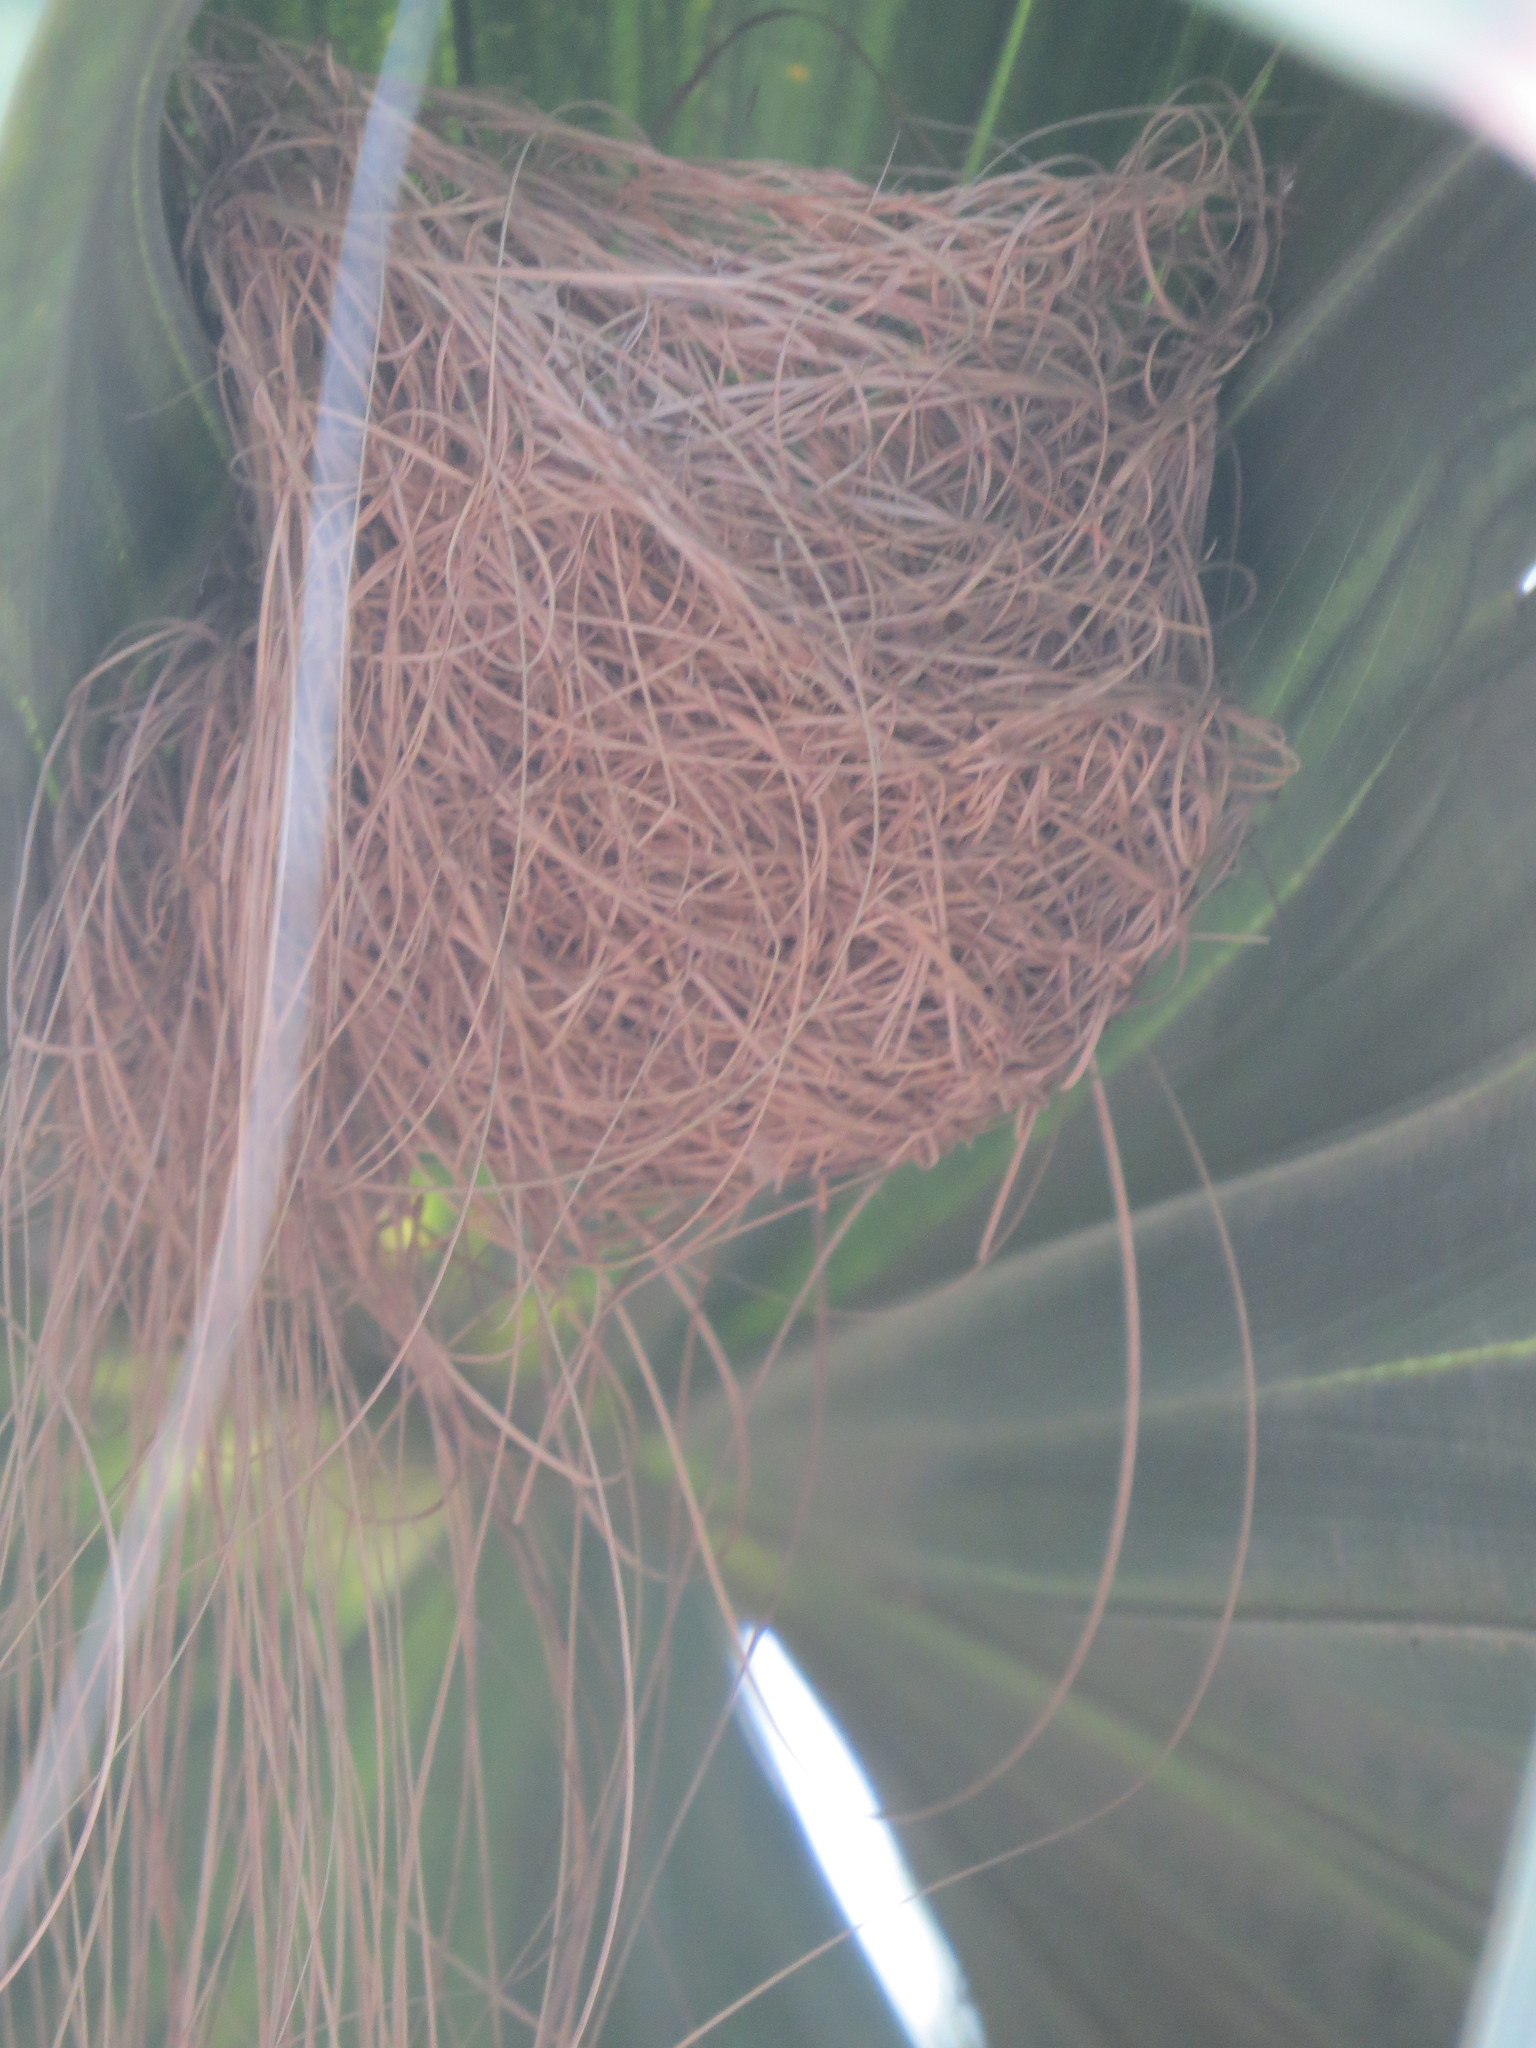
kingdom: Animalia
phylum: Chordata
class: Aves
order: Passeriformes
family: Icteridae
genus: Icterus
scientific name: Icterus cucullatus
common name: Hooded oriole
